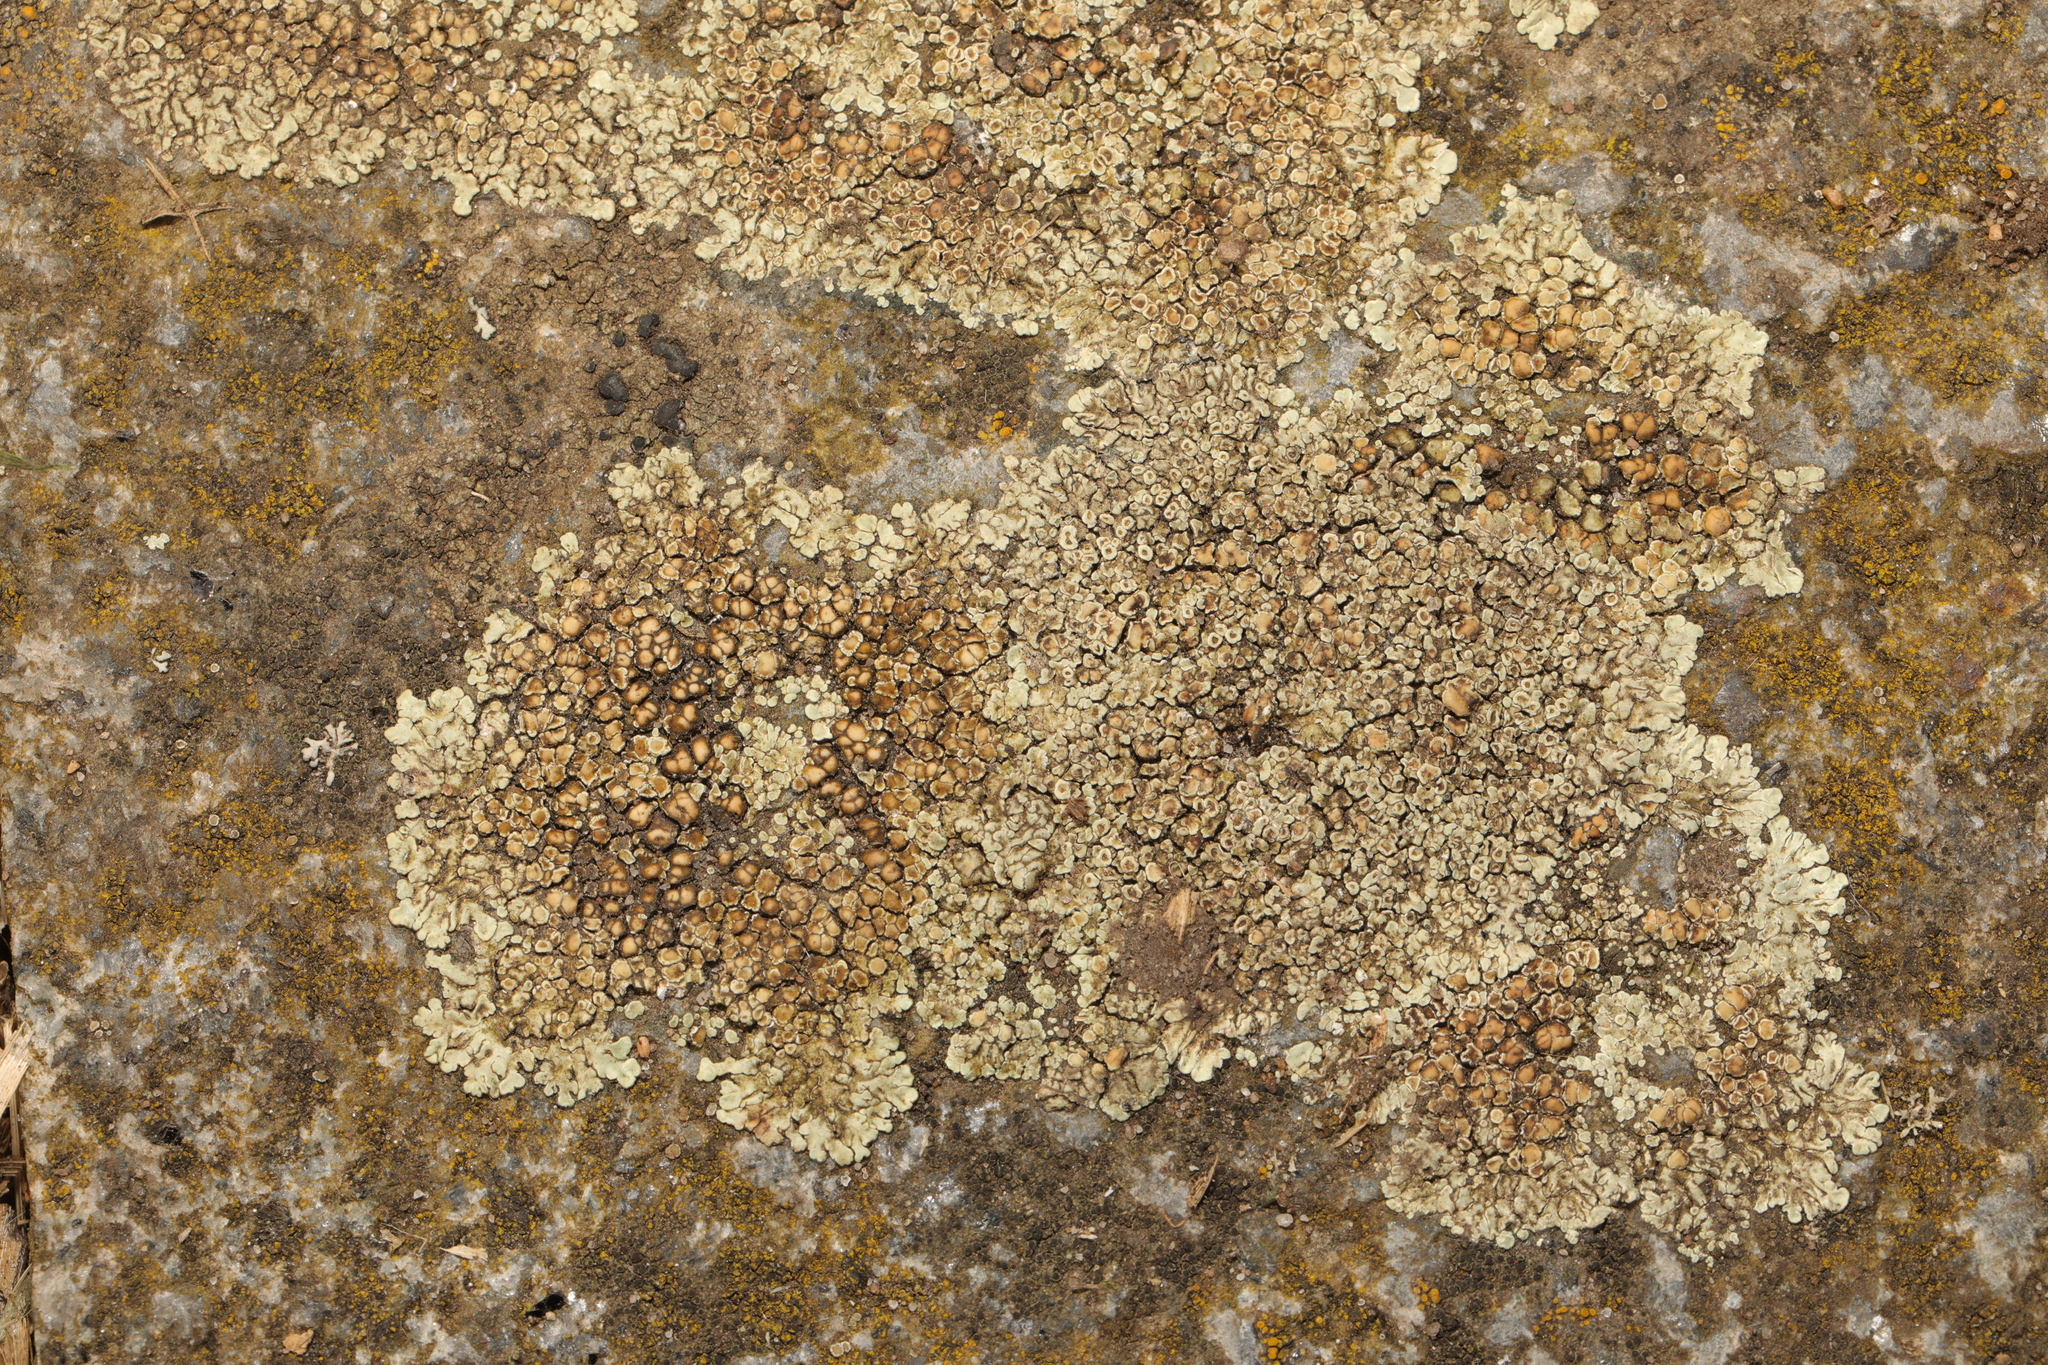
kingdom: Fungi
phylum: Ascomycota
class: Lecanoromycetes
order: Lecanorales
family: Lecanoraceae
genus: Protoparmeliopsis
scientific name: Protoparmeliopsis muralis
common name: Stonewall rim lichen
